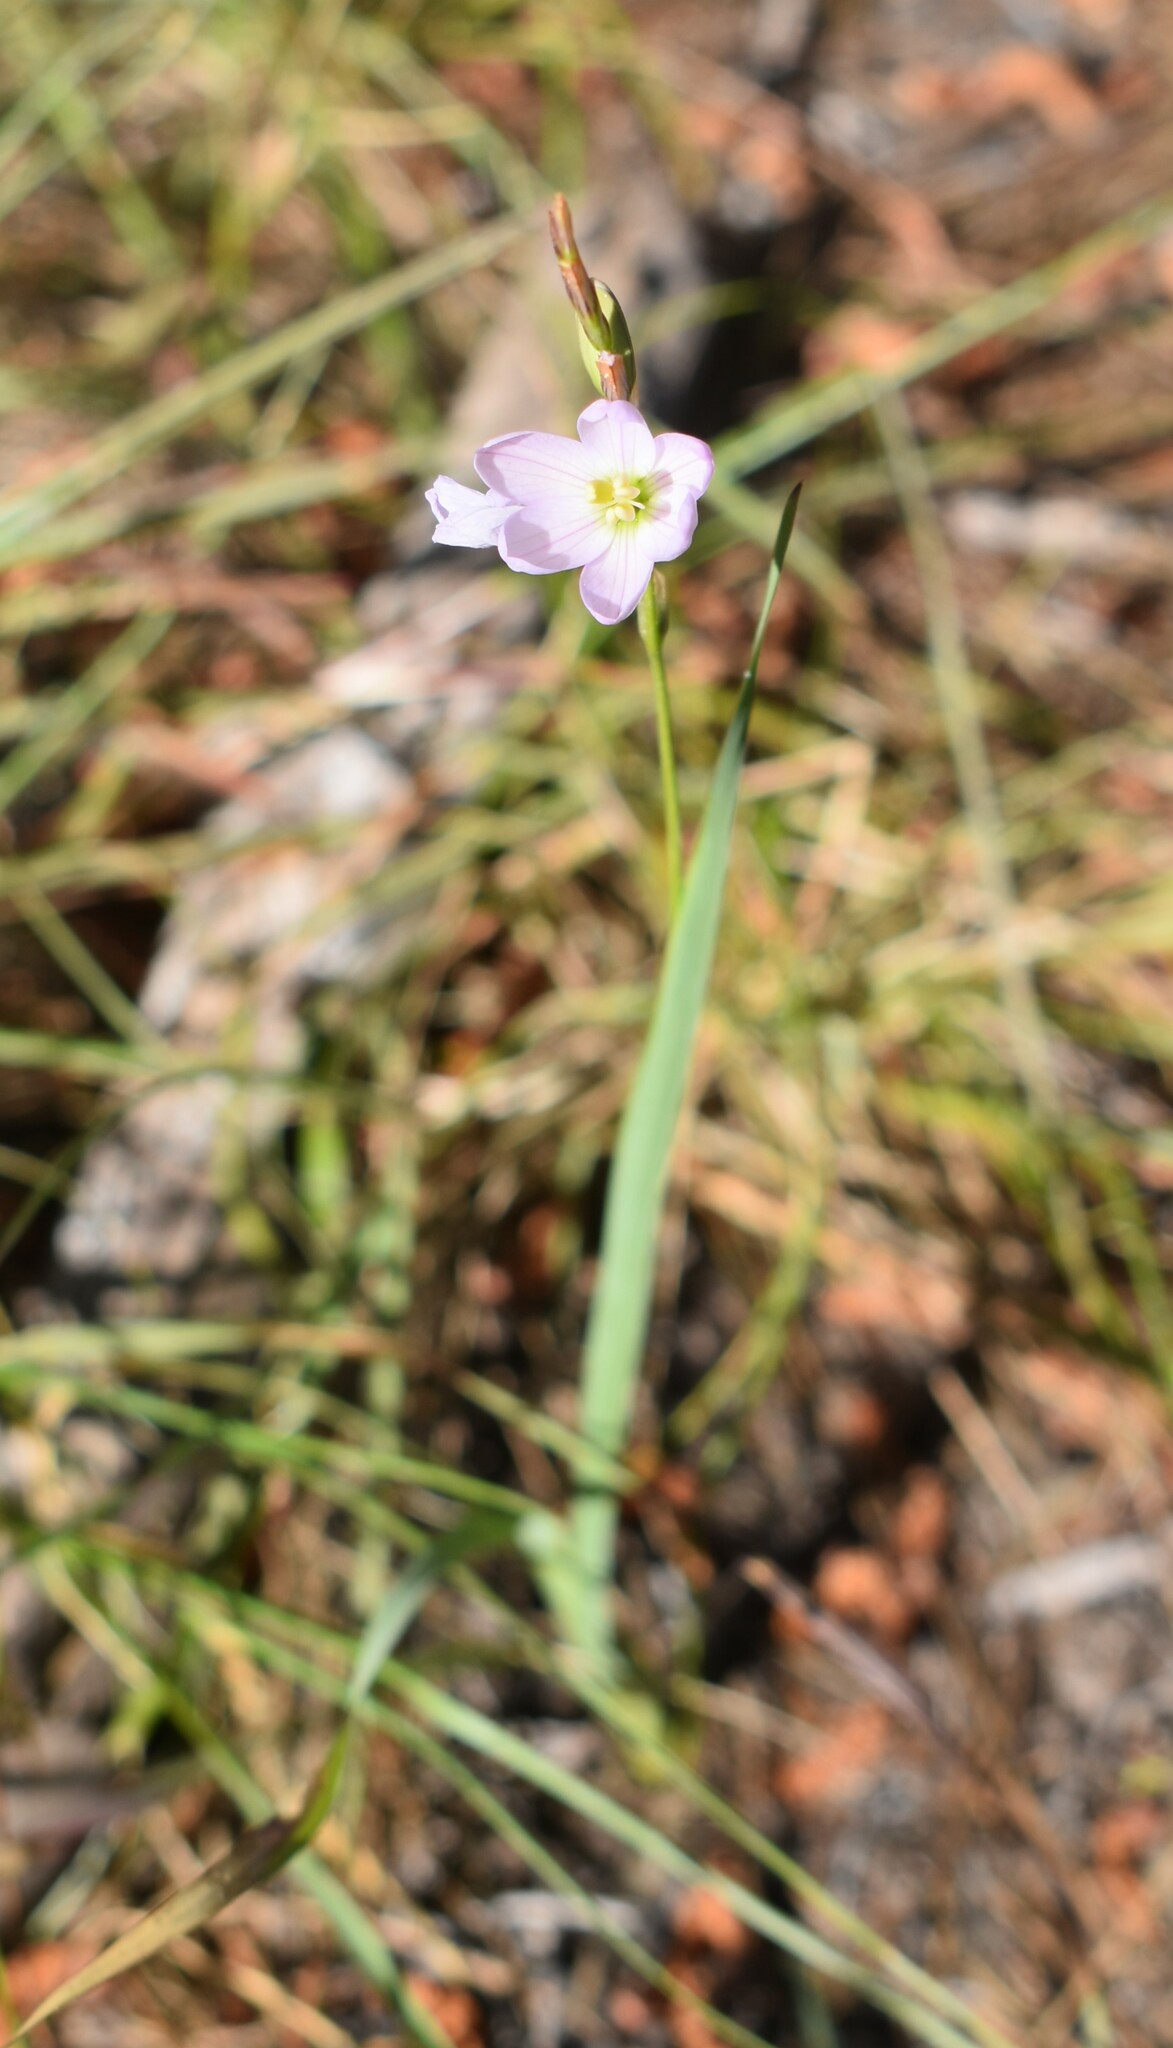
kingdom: Plantae
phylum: Tracheophyta
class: Liliopsida
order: Asparagales
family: Iridaceae
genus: Ixia
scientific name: Ixia orientalis
